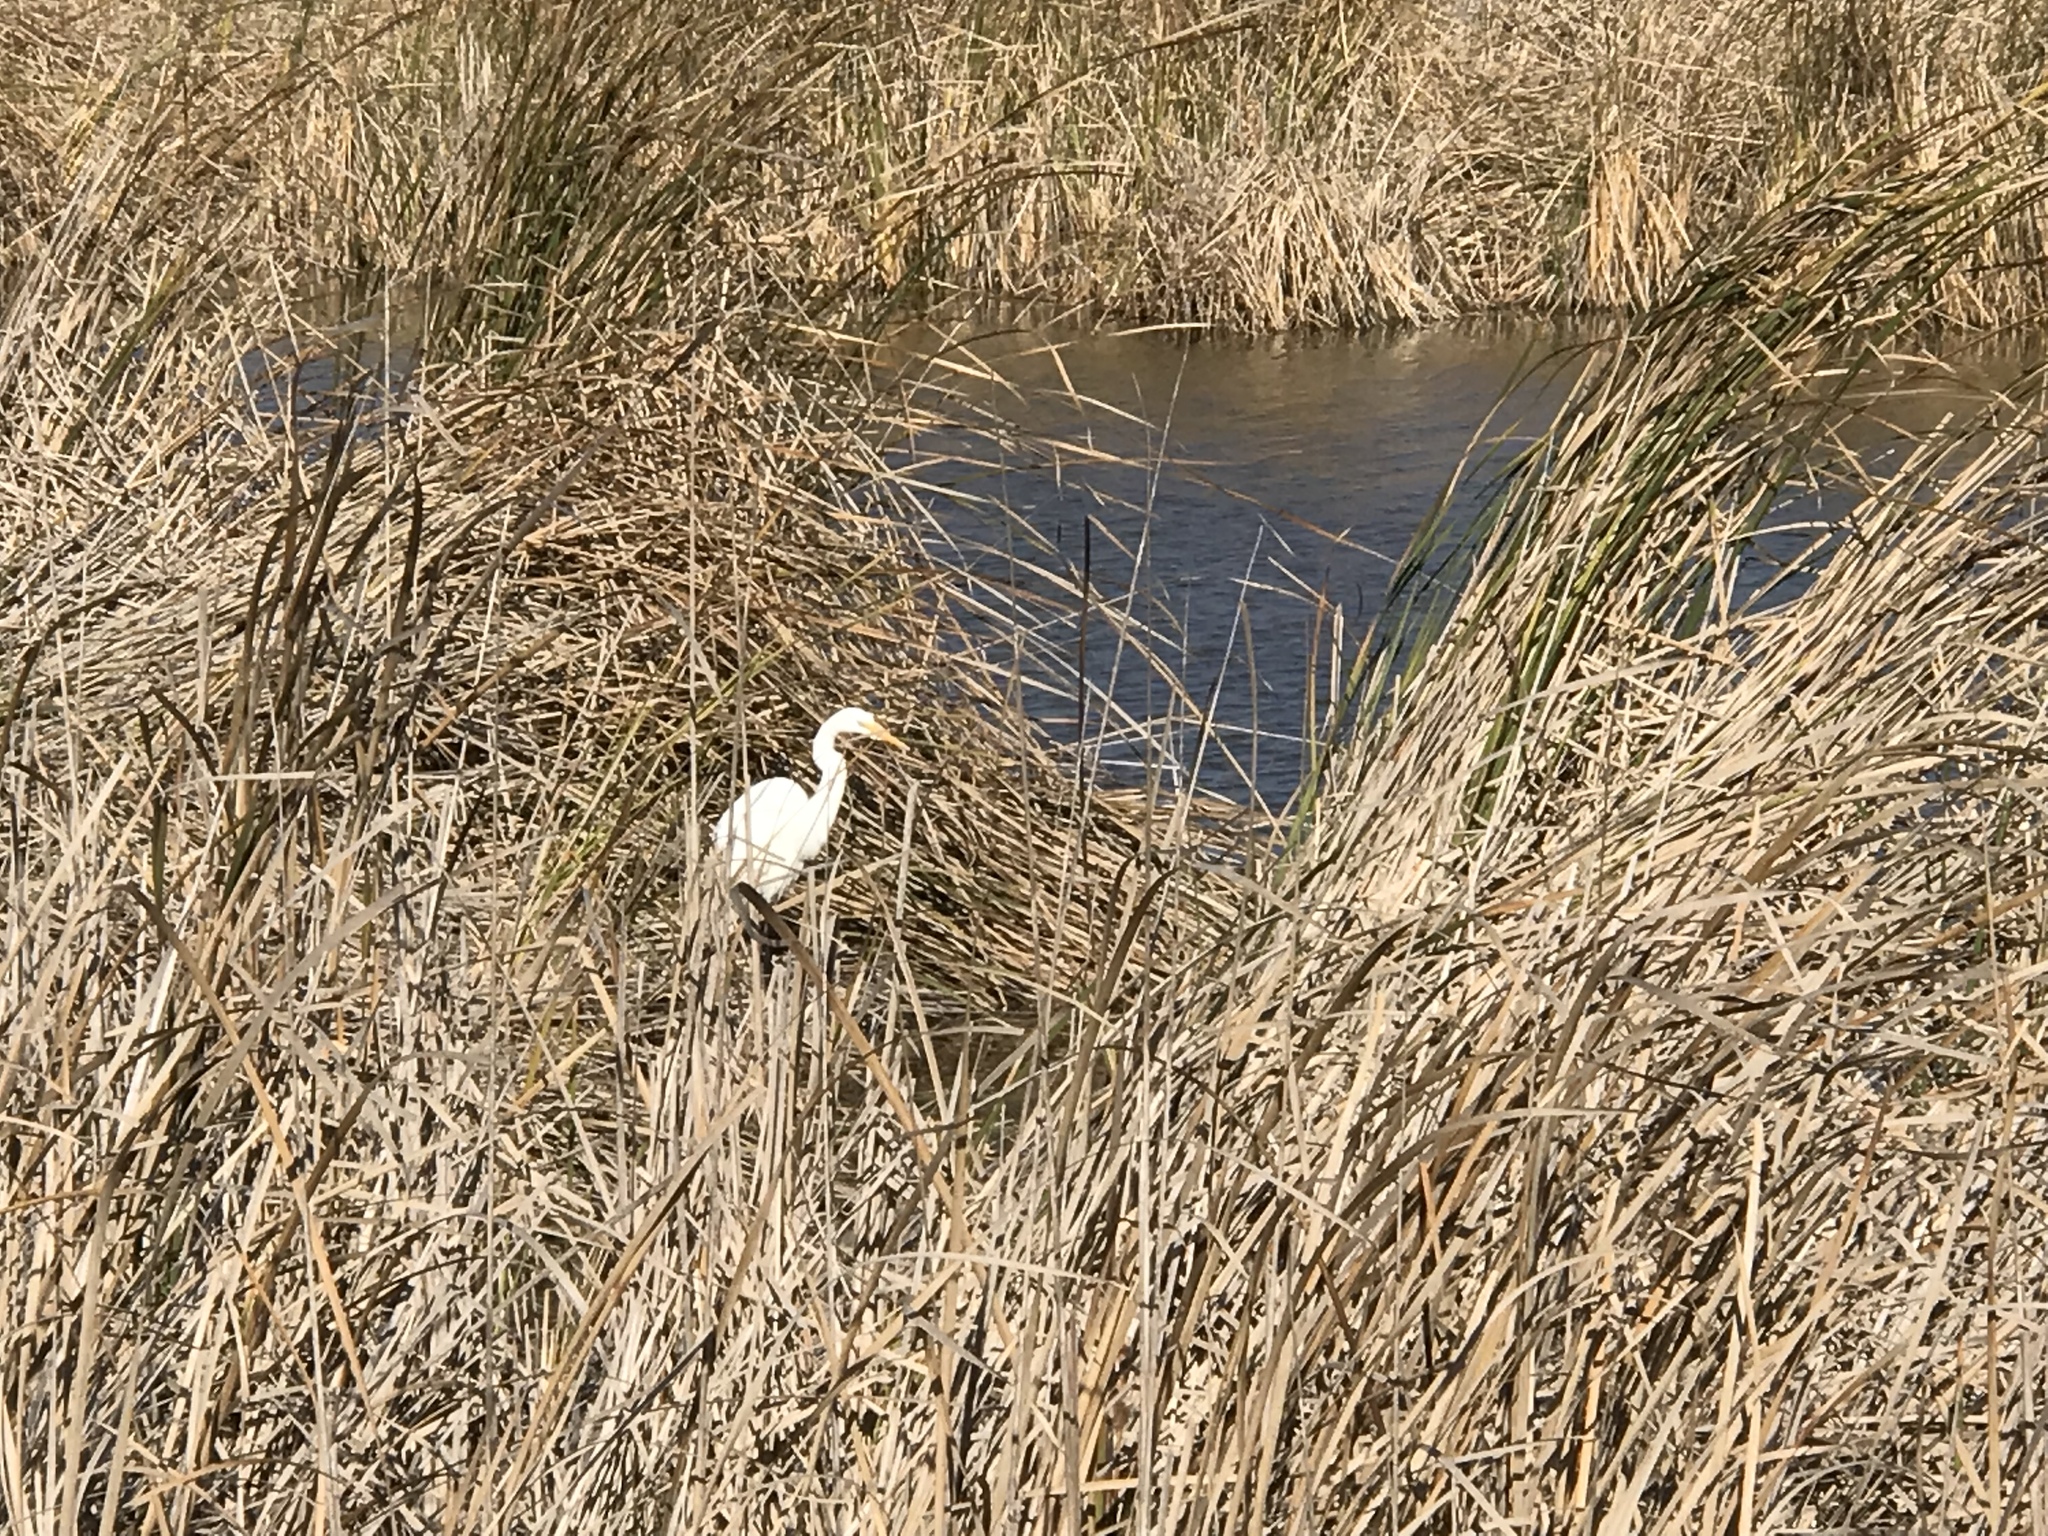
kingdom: Animalia
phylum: Chordata
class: Aves
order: Pelecaniformes
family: Ardeidae
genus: Ardea
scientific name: Ardea alba
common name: Great egret
